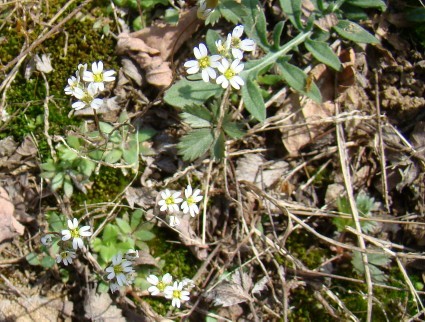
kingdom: Plantae
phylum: Tracheophyta
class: Magnoliopsida
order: Brassicales
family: Brassicaceae
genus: Draba
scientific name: Draba verna
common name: Spring draba
